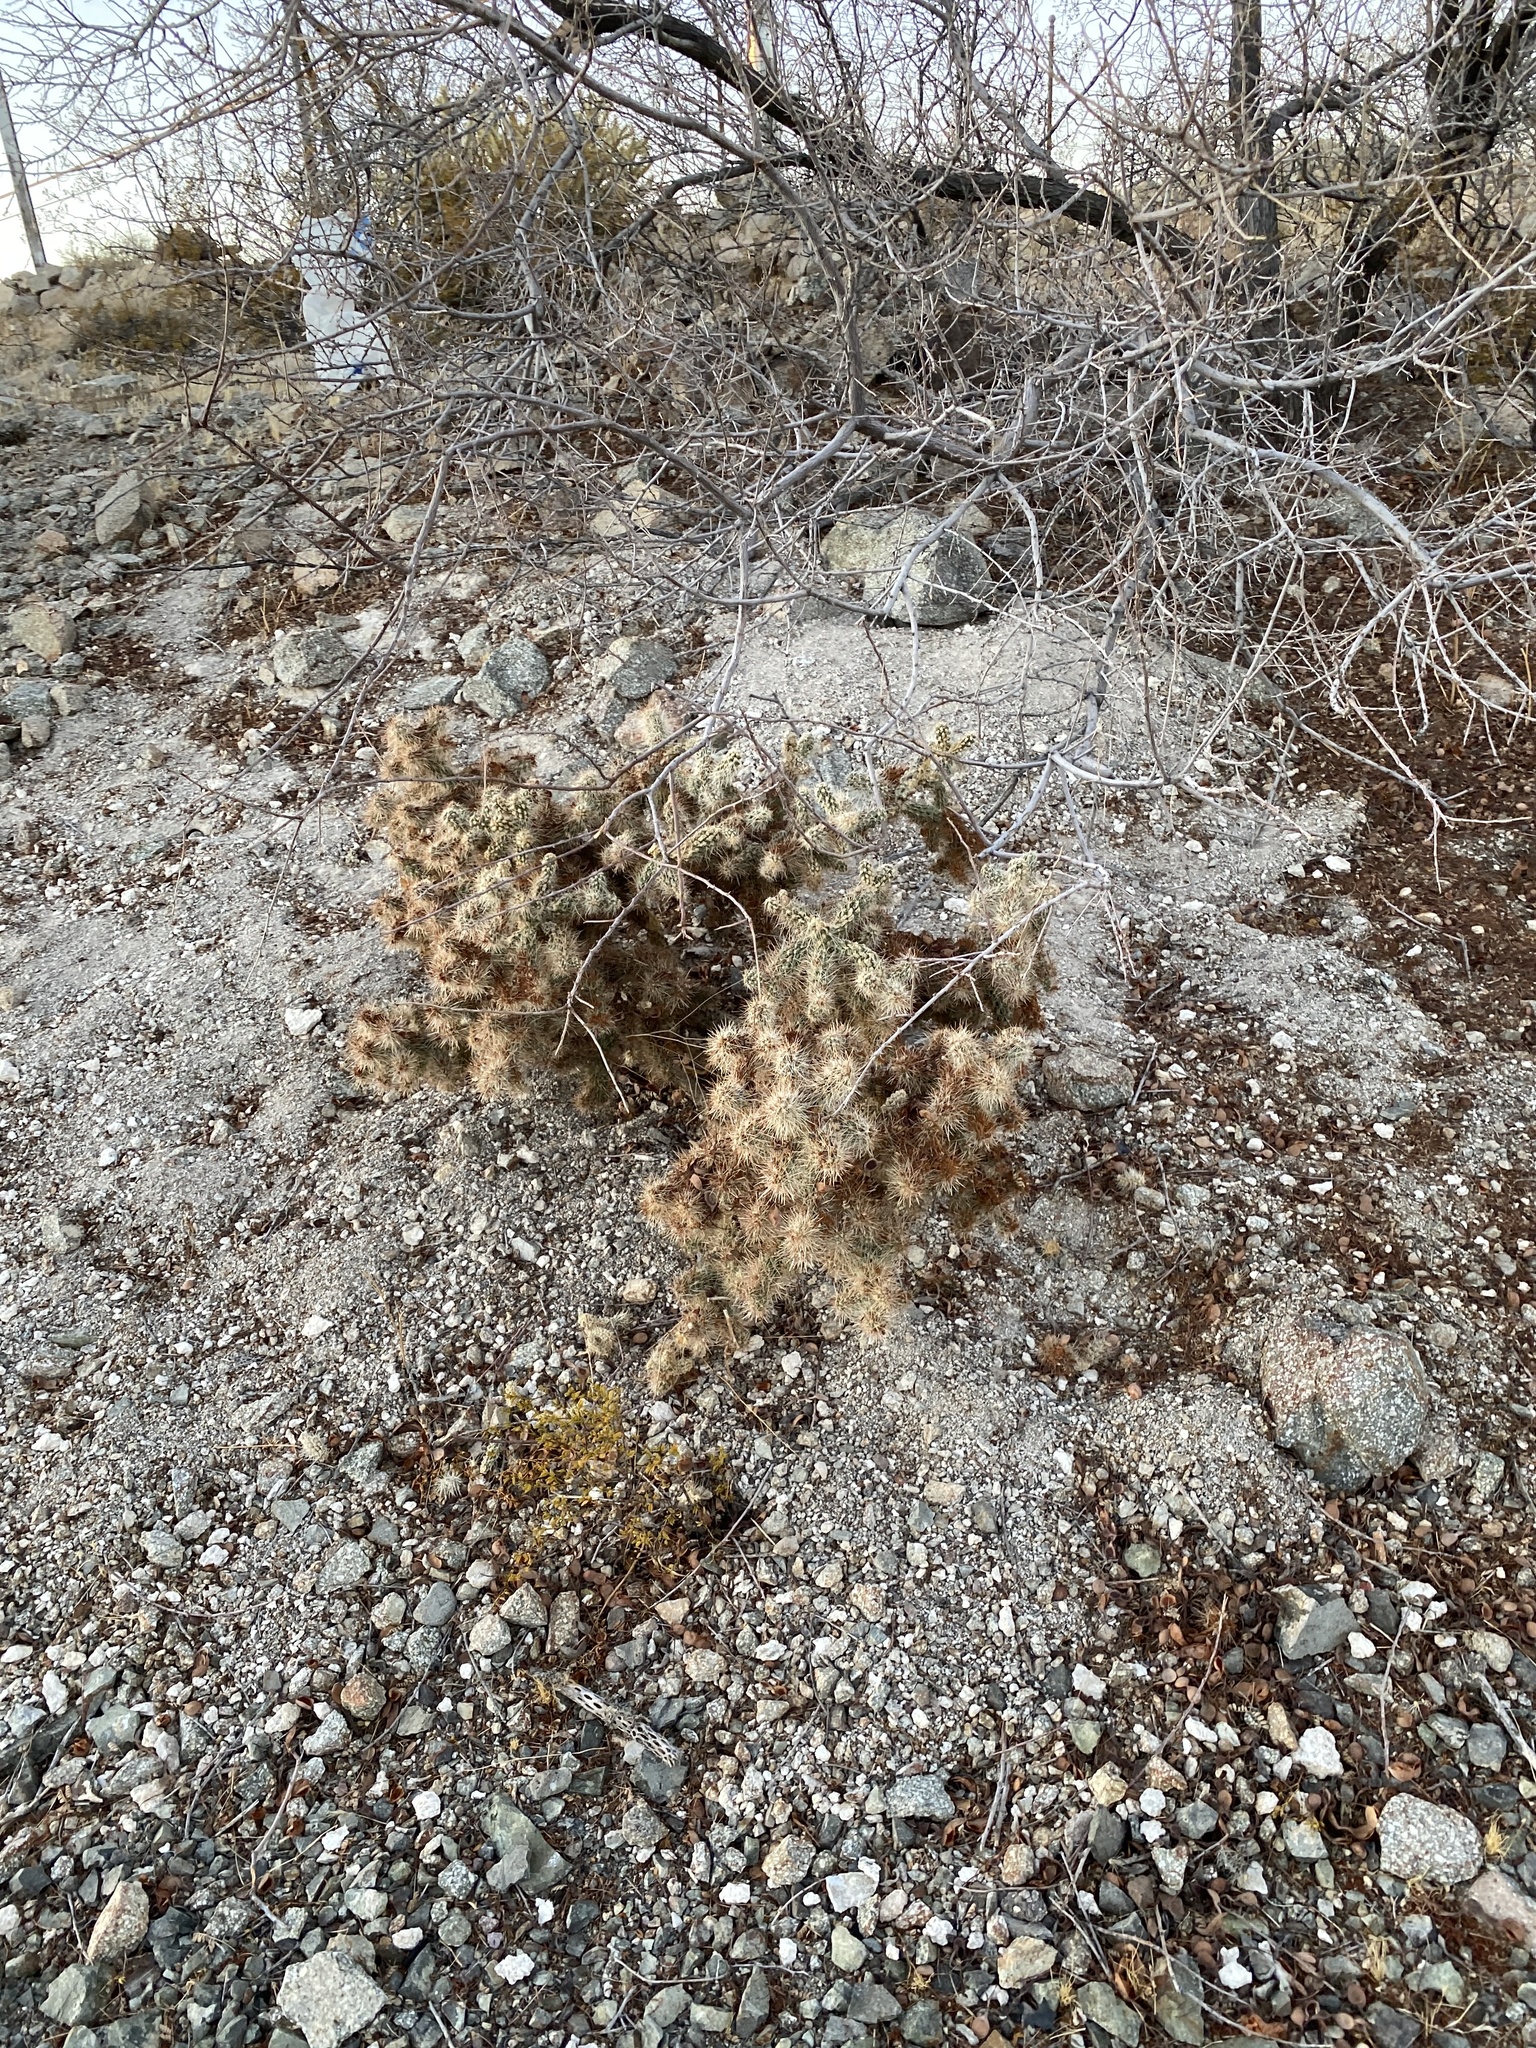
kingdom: Plantae
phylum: Tracheophyta
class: Magnoliopsida
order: Caryophyllales
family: Cactaceae
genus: Cylindropuntia
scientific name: Cylindropuntia echinocarpa
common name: Ground cholla
